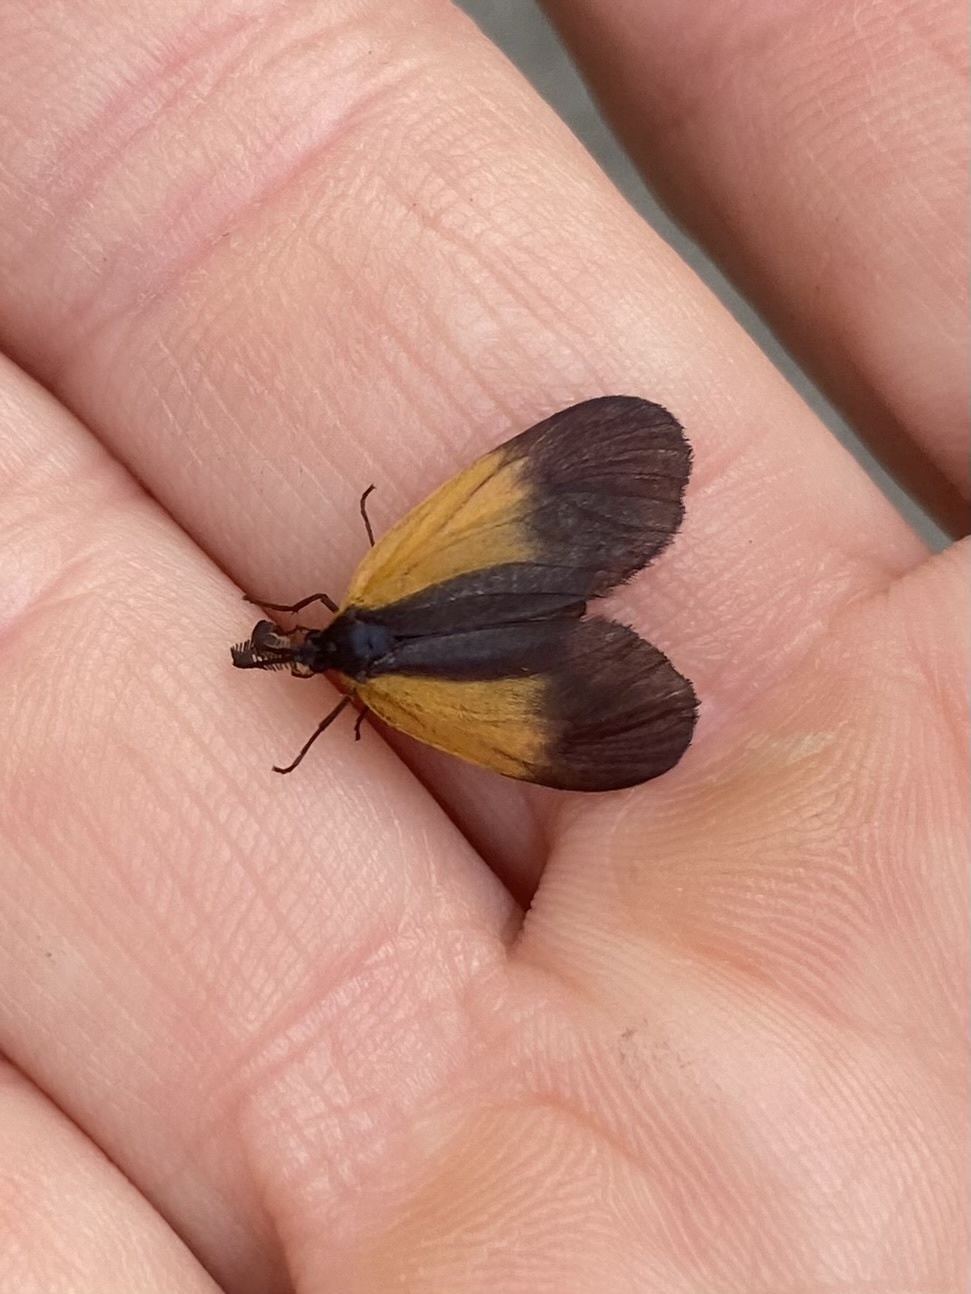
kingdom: Animalia
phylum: Arthropoda
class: Insecta
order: Lepidoptera
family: Zygaenidae
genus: Malthaca
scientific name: Malthaca dimidiata
